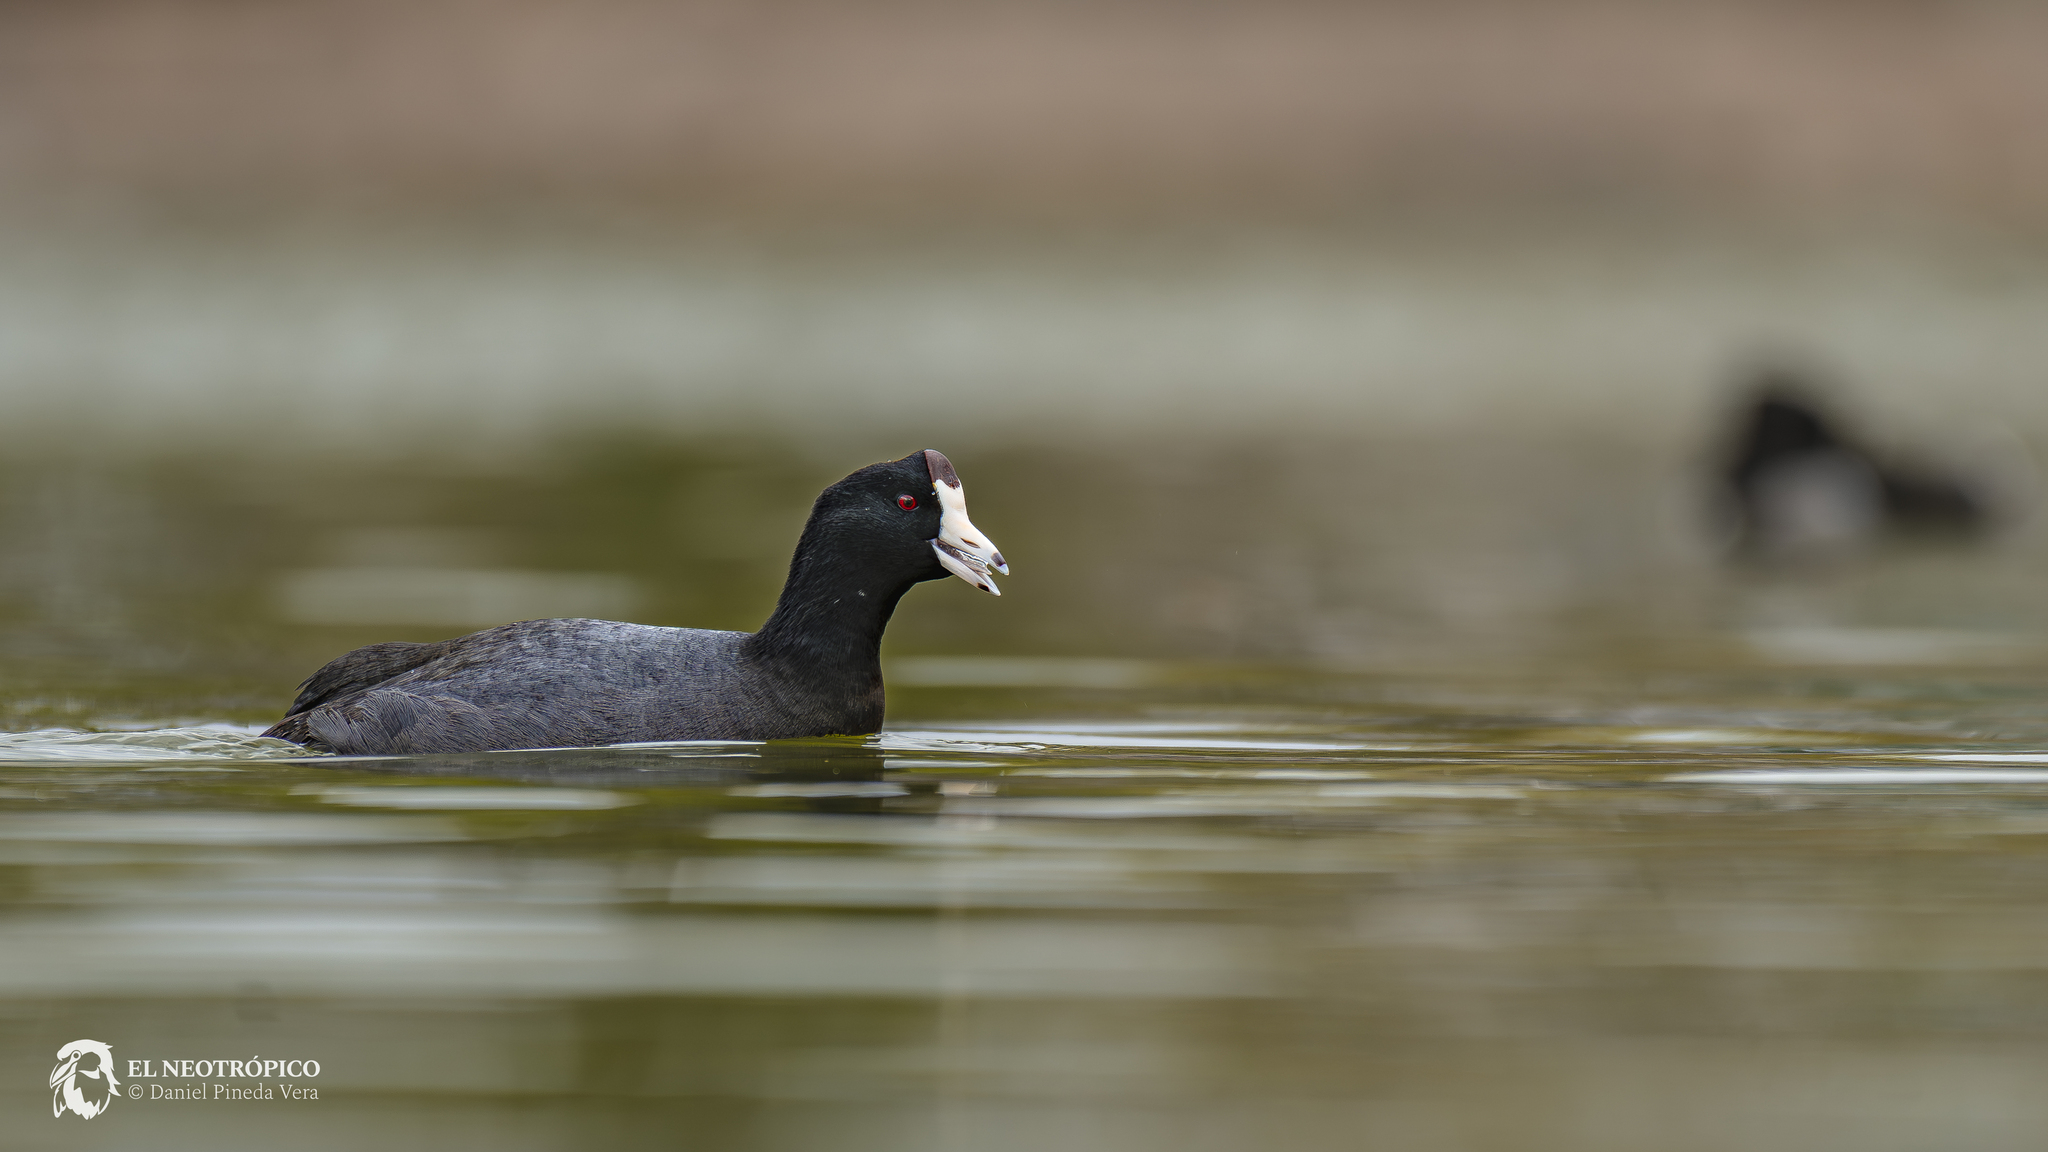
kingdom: Animalia
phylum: Chordata
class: Aves
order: Gruiformes
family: Rallidae
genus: Fulica
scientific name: Fulica americana
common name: American coot
